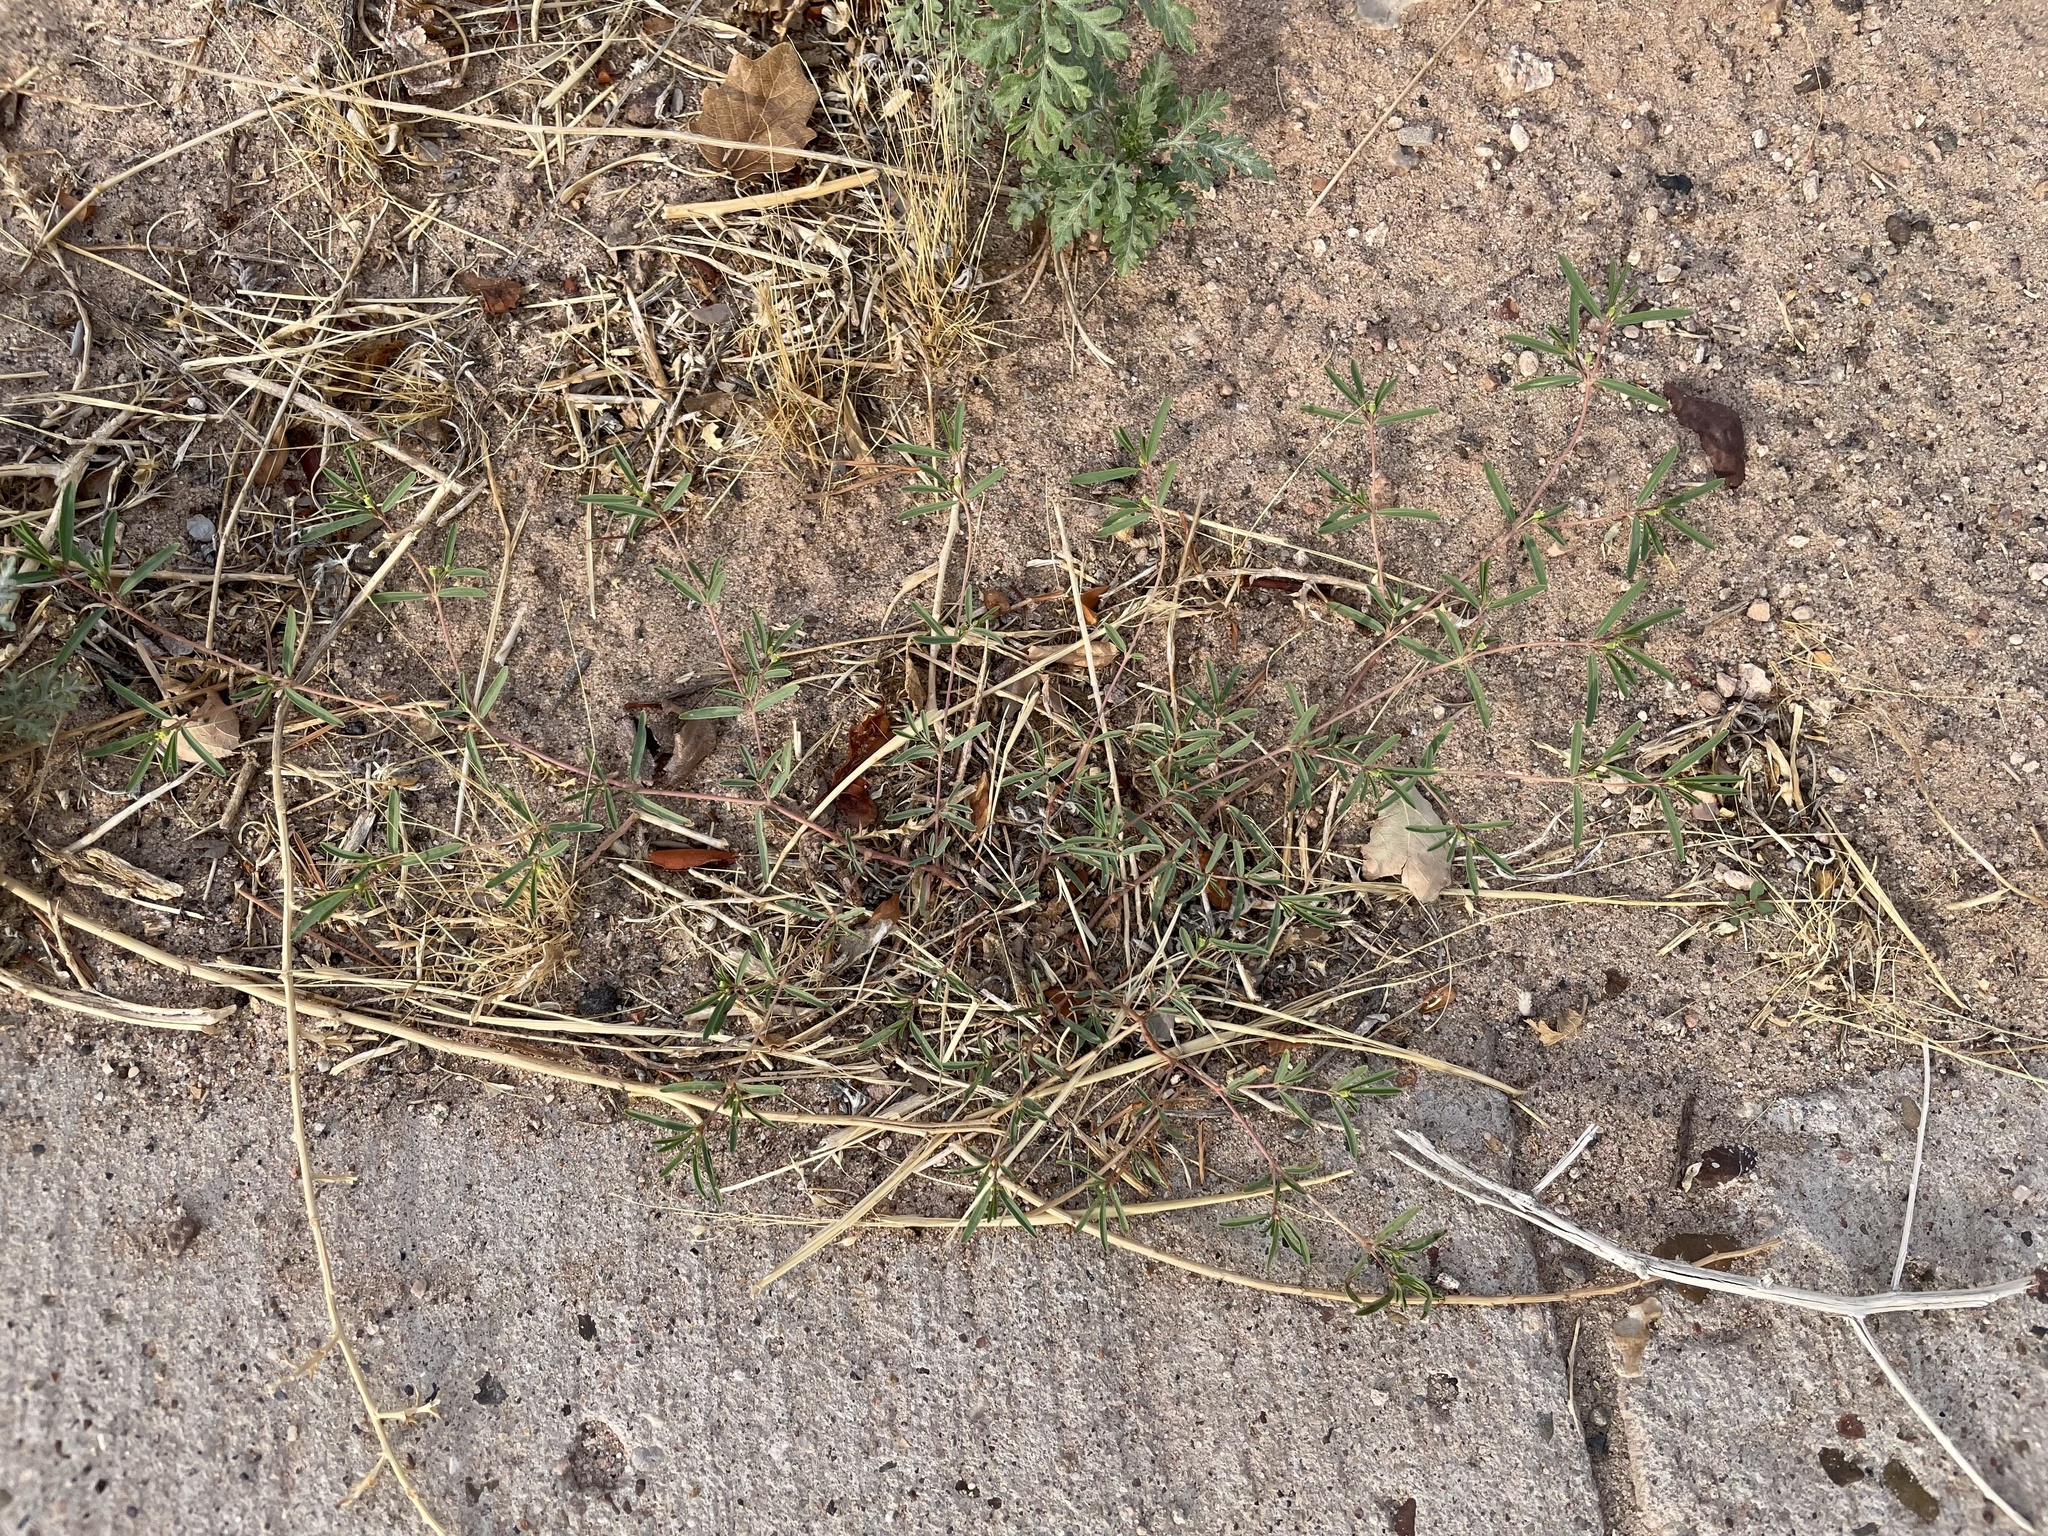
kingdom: Plantae
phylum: Tracheophyta
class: Magnoliopsida
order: Malpighiales
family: Euphorbiaceae
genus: Euphorbia
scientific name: Euphorbia parryi
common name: Dune spurge
